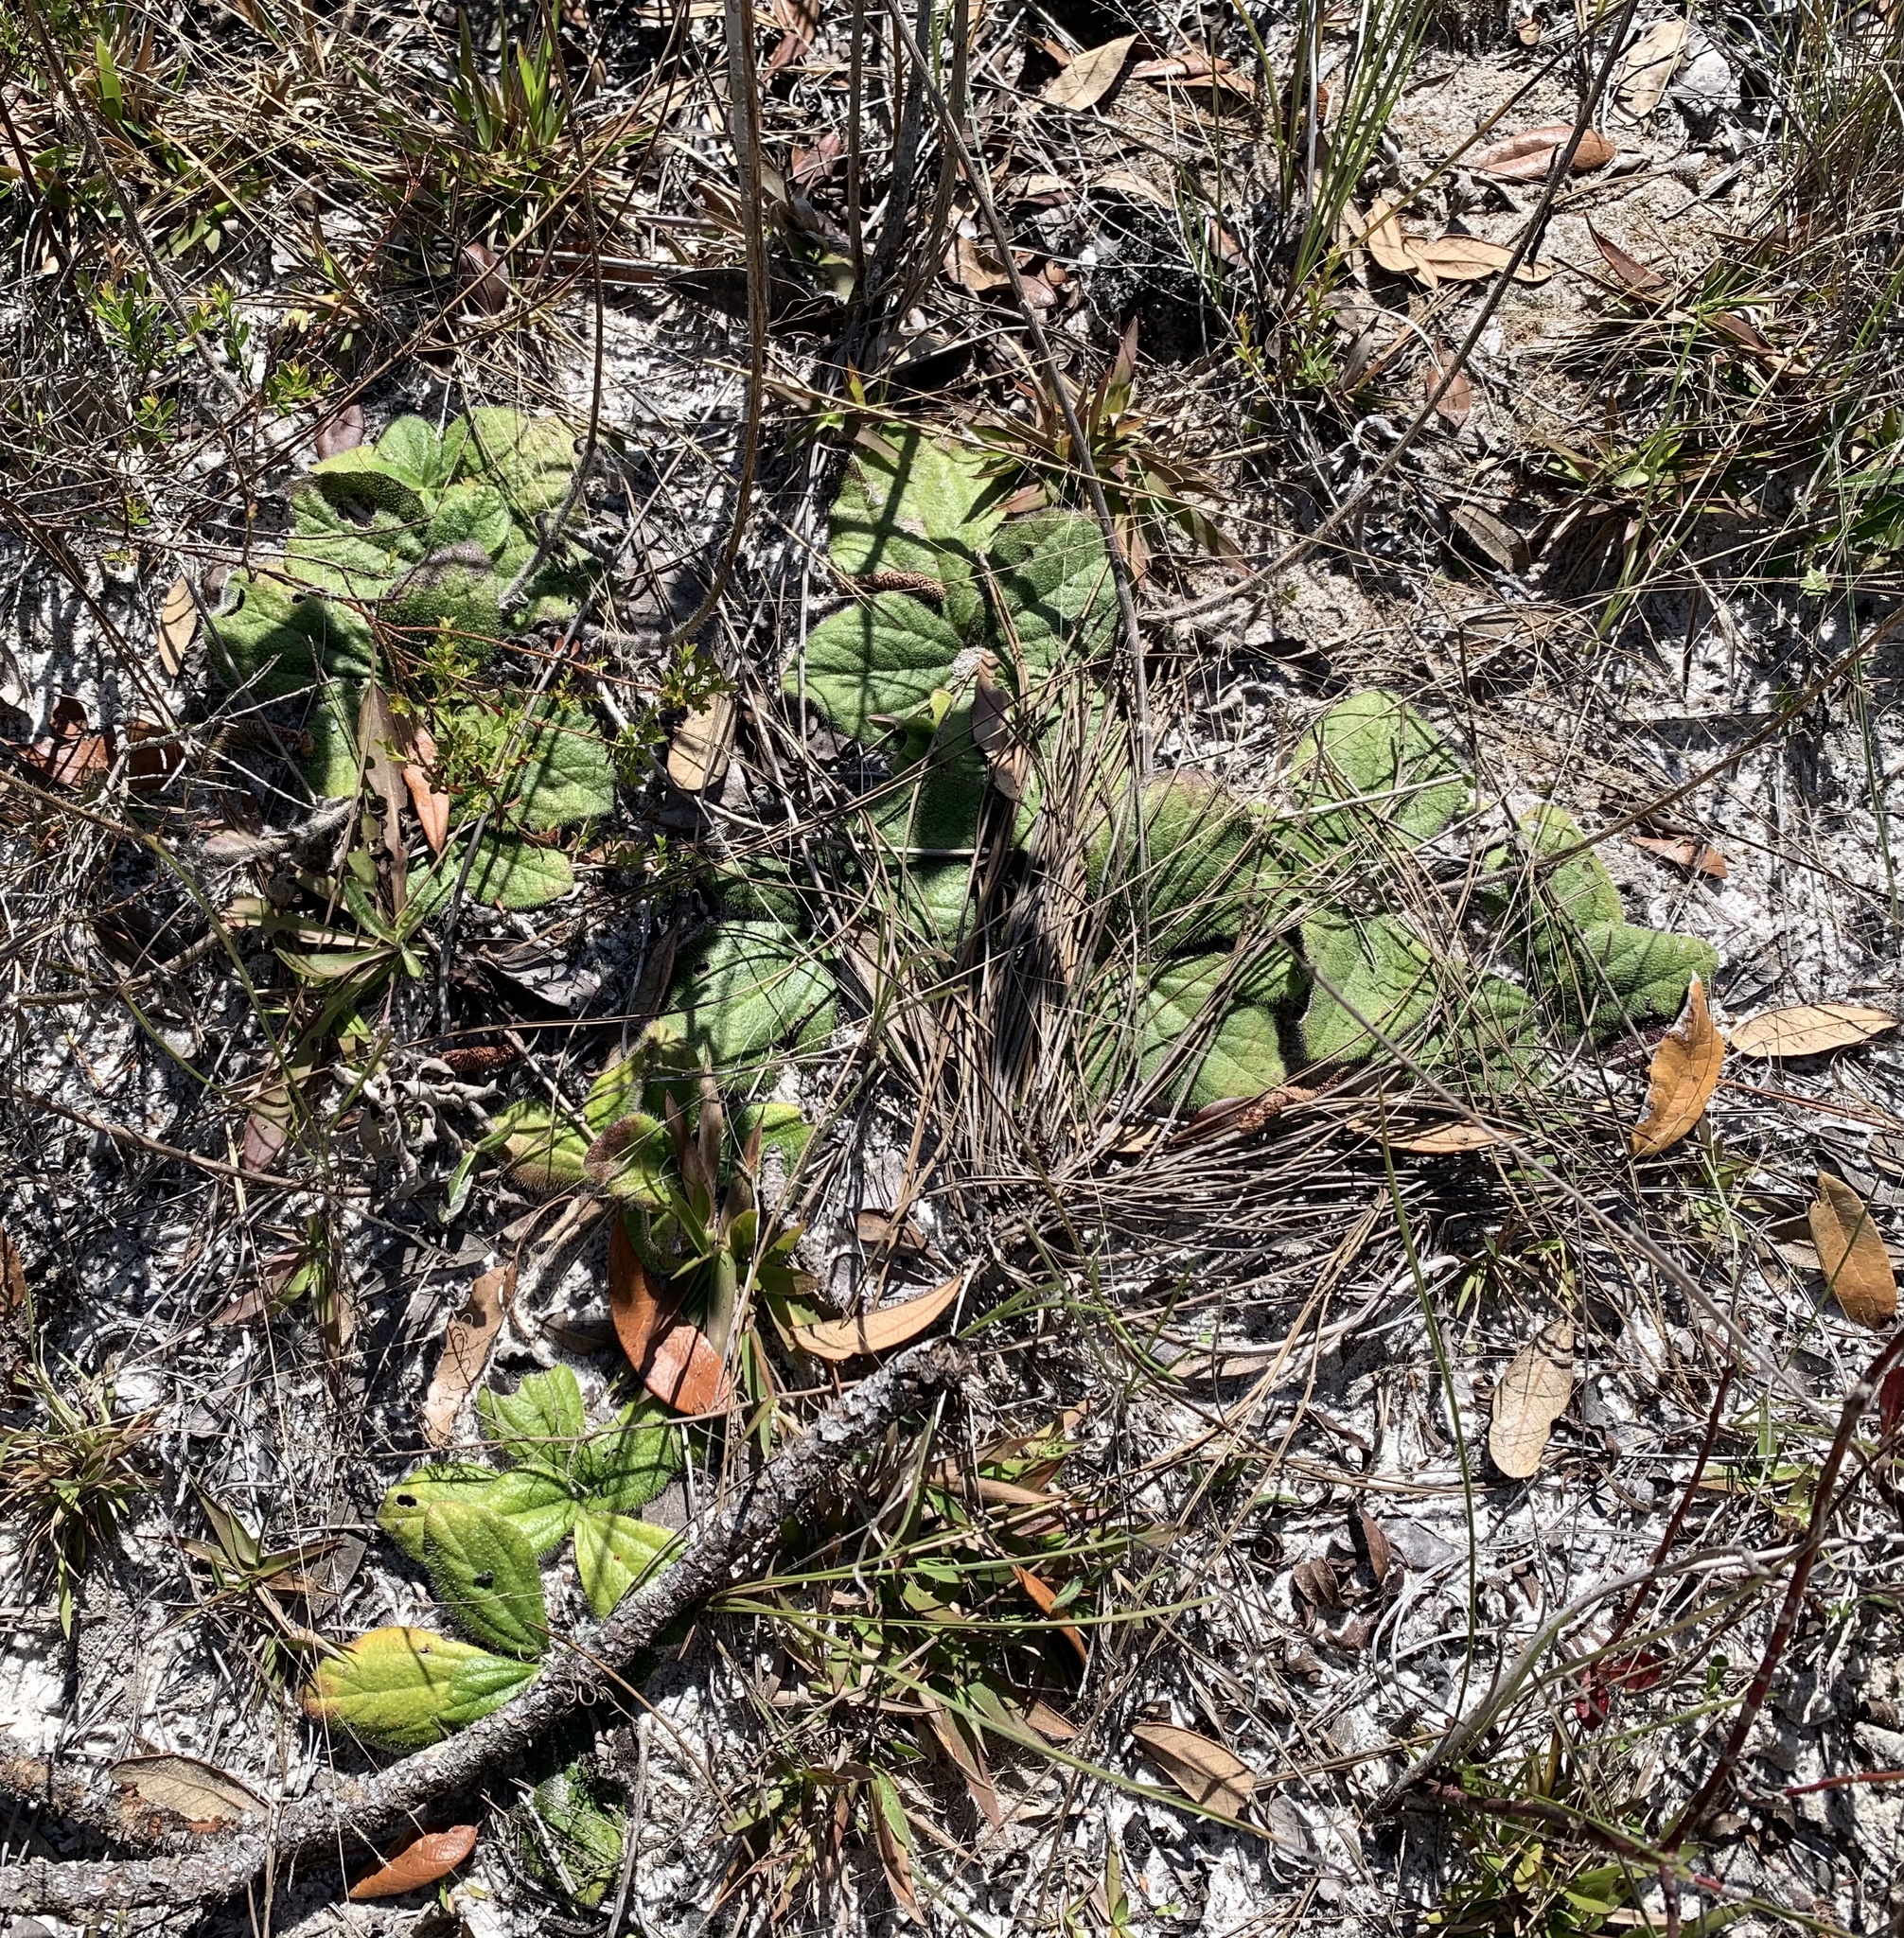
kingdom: Plantae
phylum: Tracheophyta
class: Magnoliopsida
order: Asterales
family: Asteraceae
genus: Helianthus
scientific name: Helianthus radula
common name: Pineland sunflower
